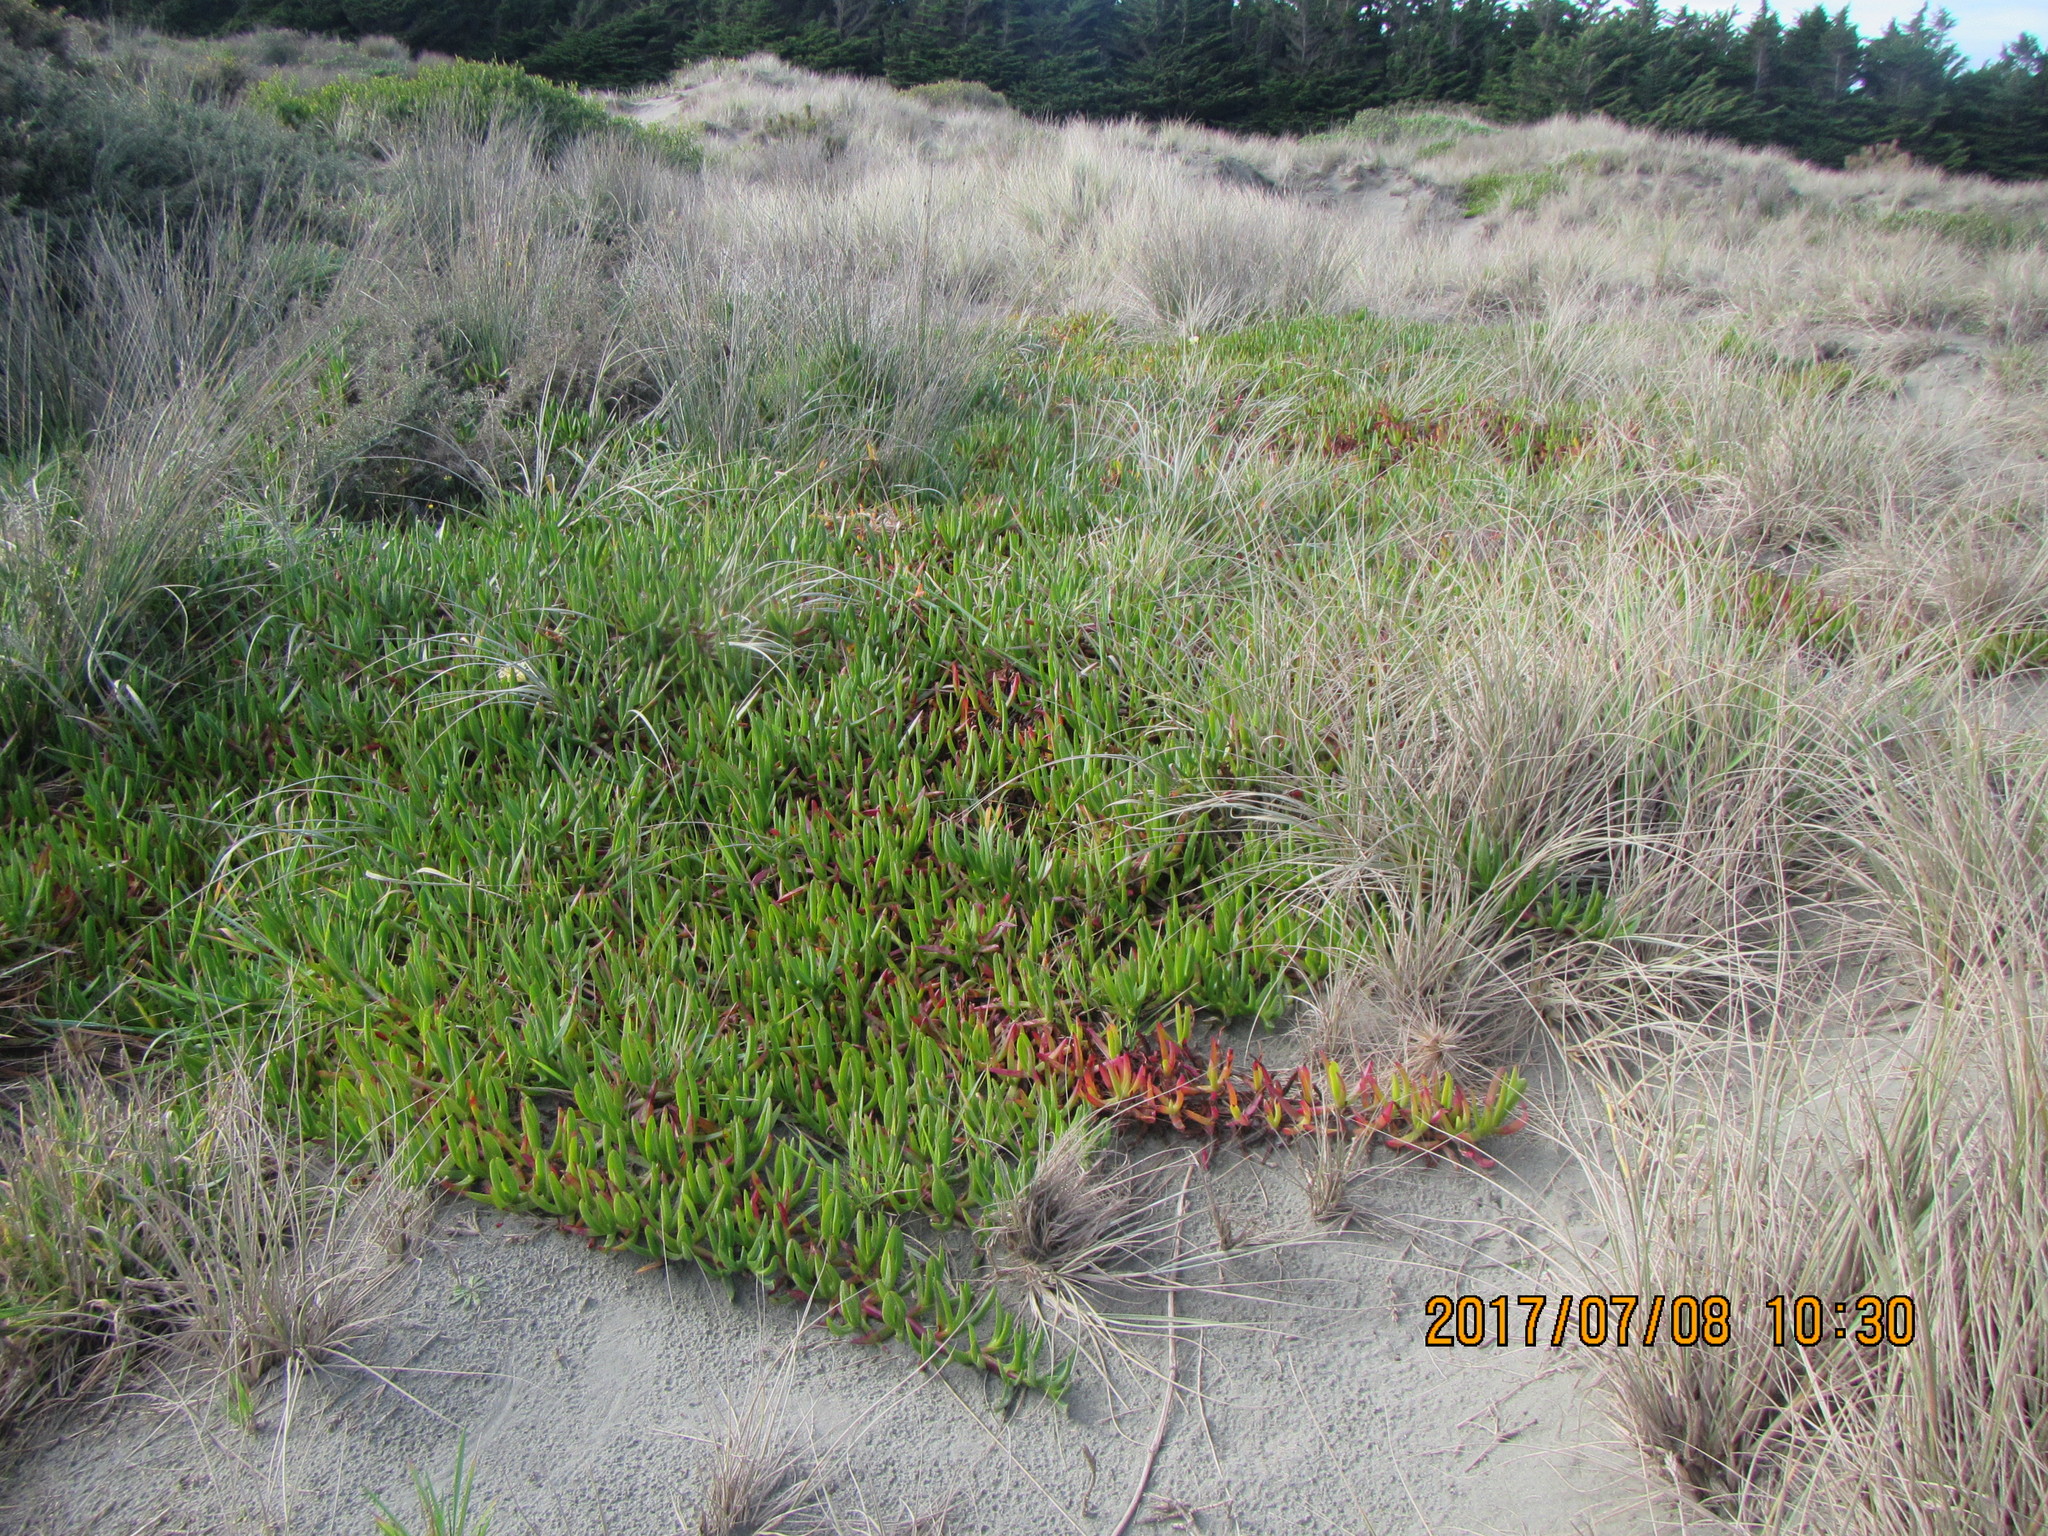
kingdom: Plantae
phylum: Tracheophyta
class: Magnoliopsida
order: Caryophyllales
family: Aizoaceae
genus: Carpobrotus
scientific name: Carpobrotus edulis
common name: Hottentot-fig
